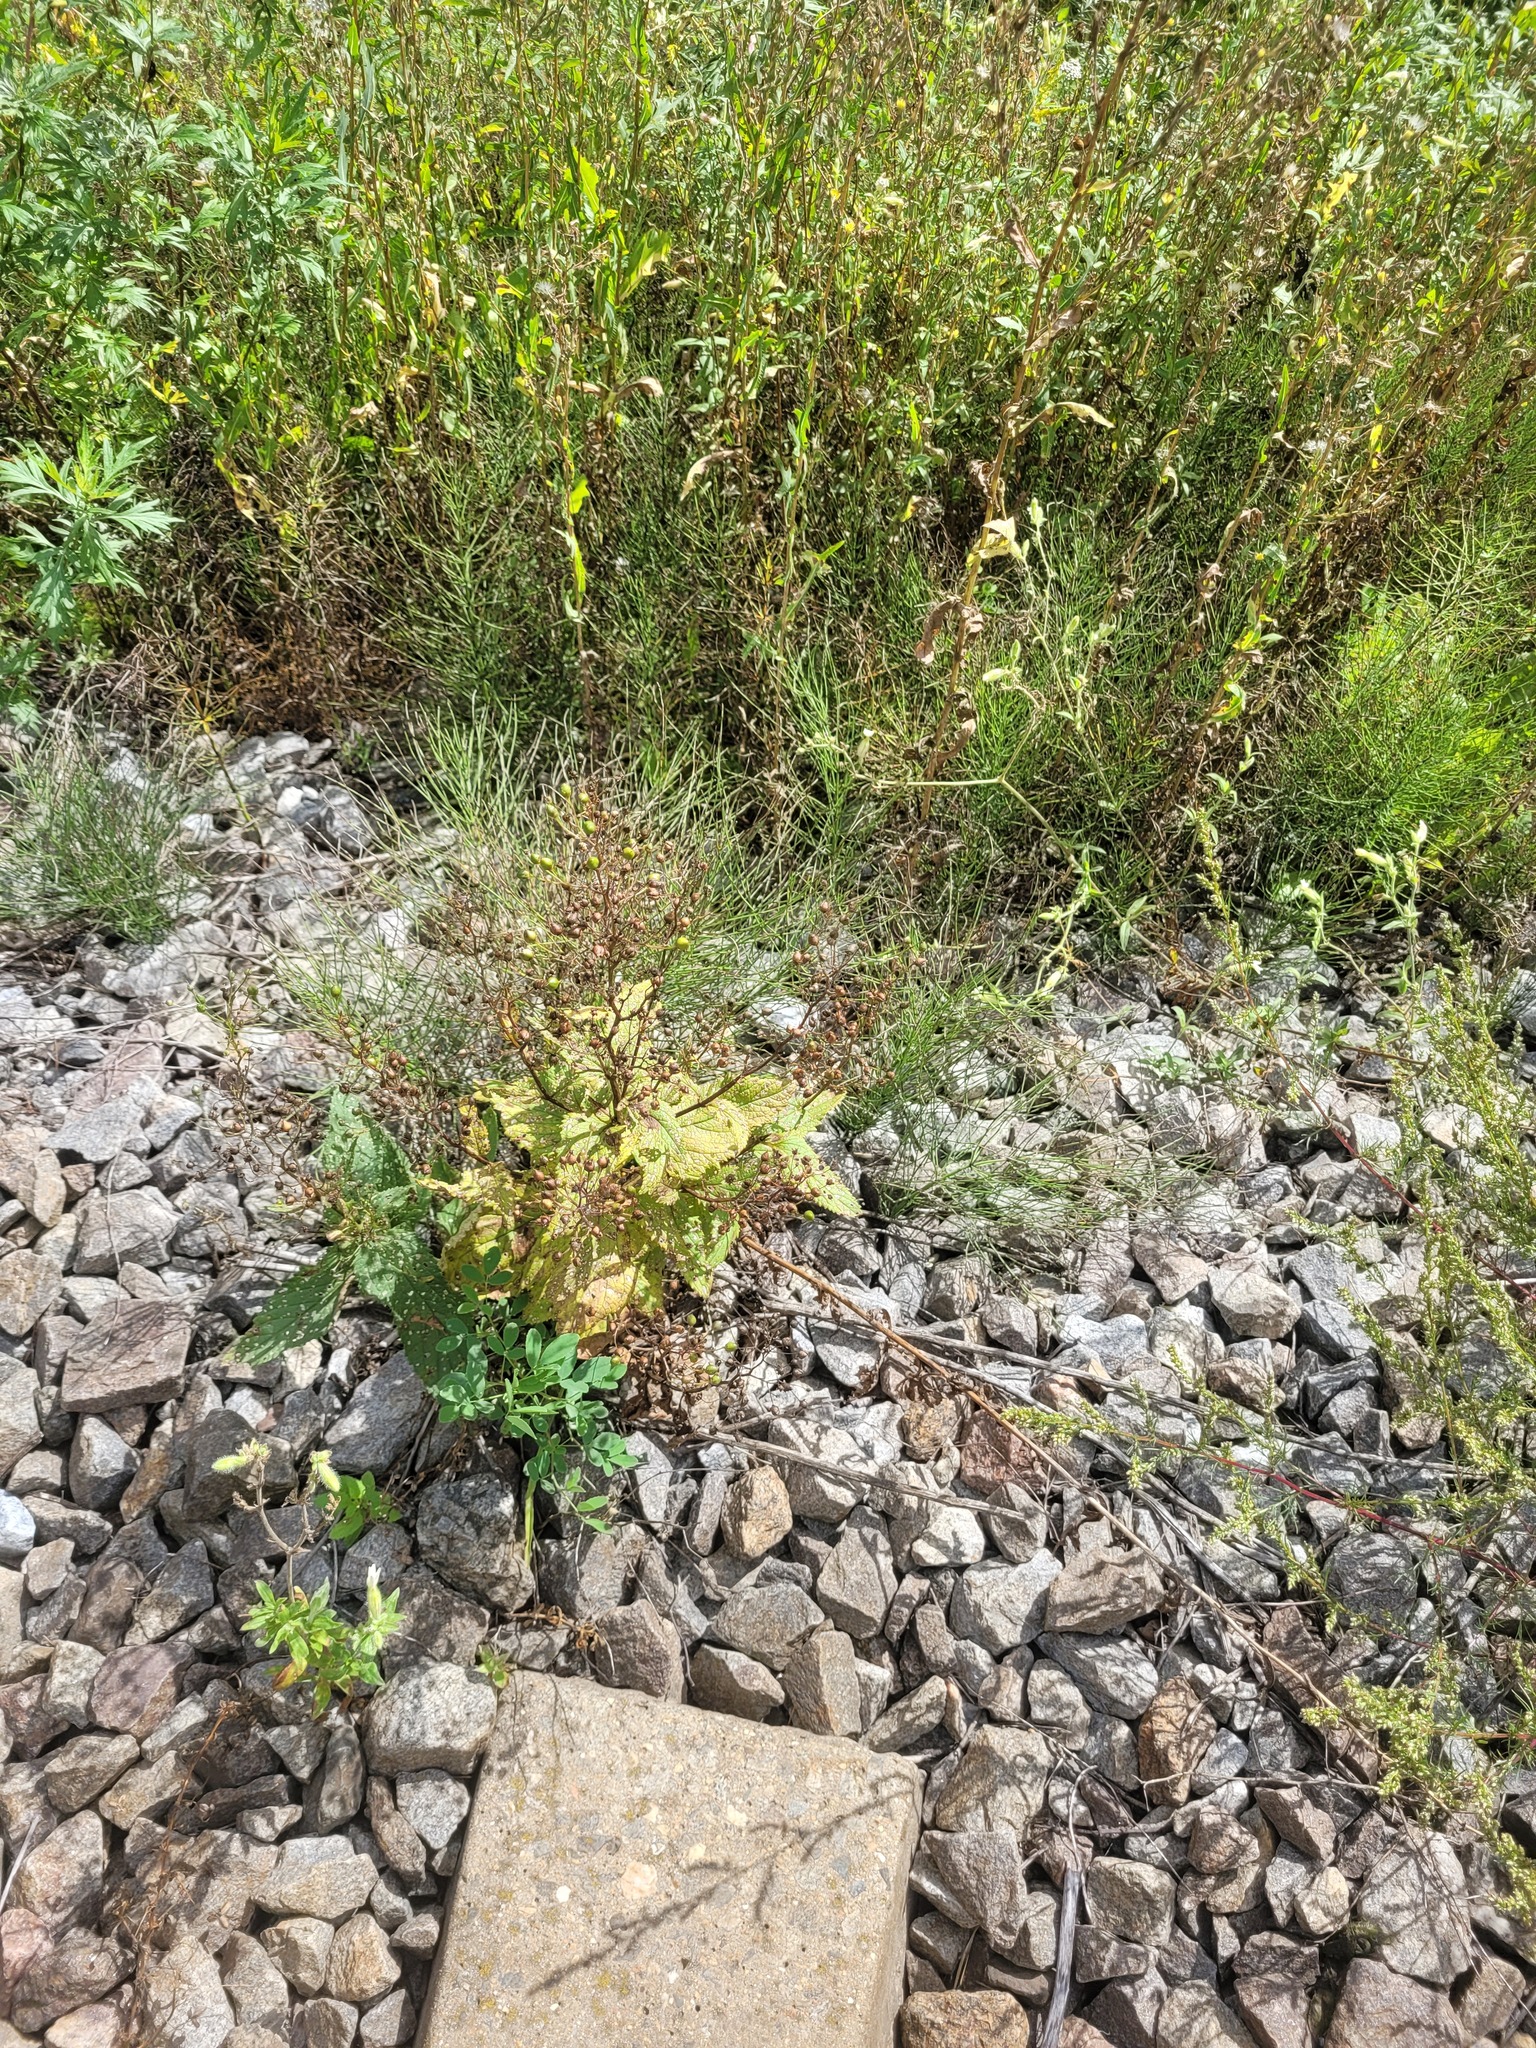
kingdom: Plantae
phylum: Tracheophyta
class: Magnoliopsida
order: Lamiales
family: Scrophulariaceae
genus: Scrophularia
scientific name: Scrophularia nodosa
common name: Common figwort
